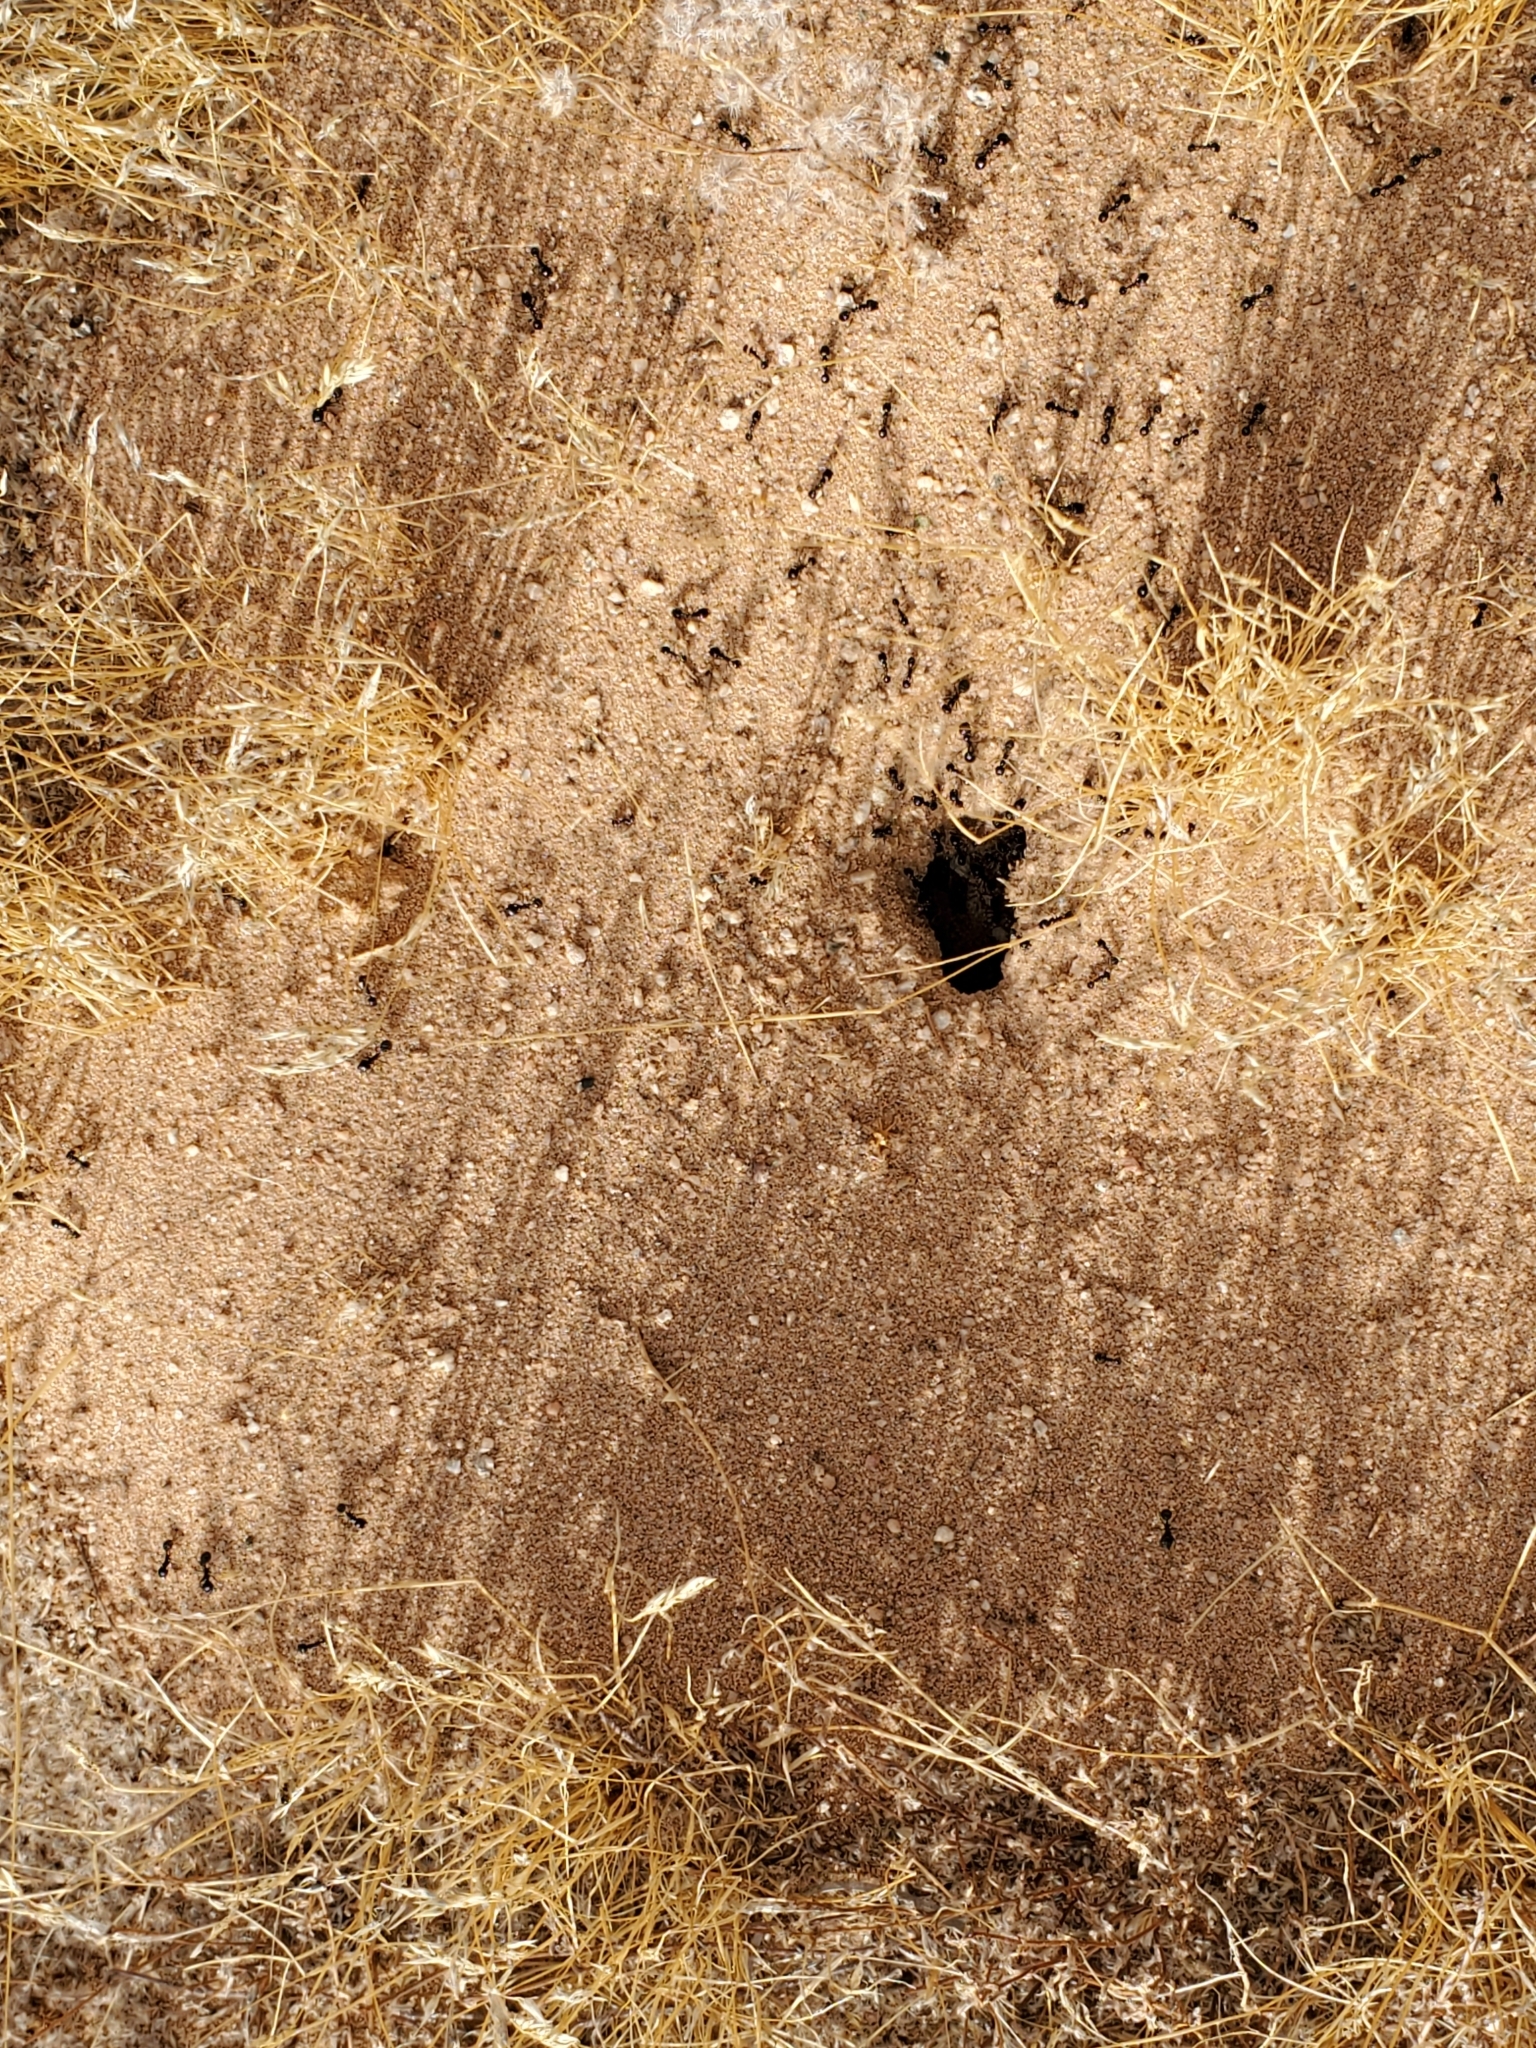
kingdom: Animalia
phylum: Arthropoda
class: Insecta
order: Hymenoptera
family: Formicidae
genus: Messor
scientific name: Messor pergandei
